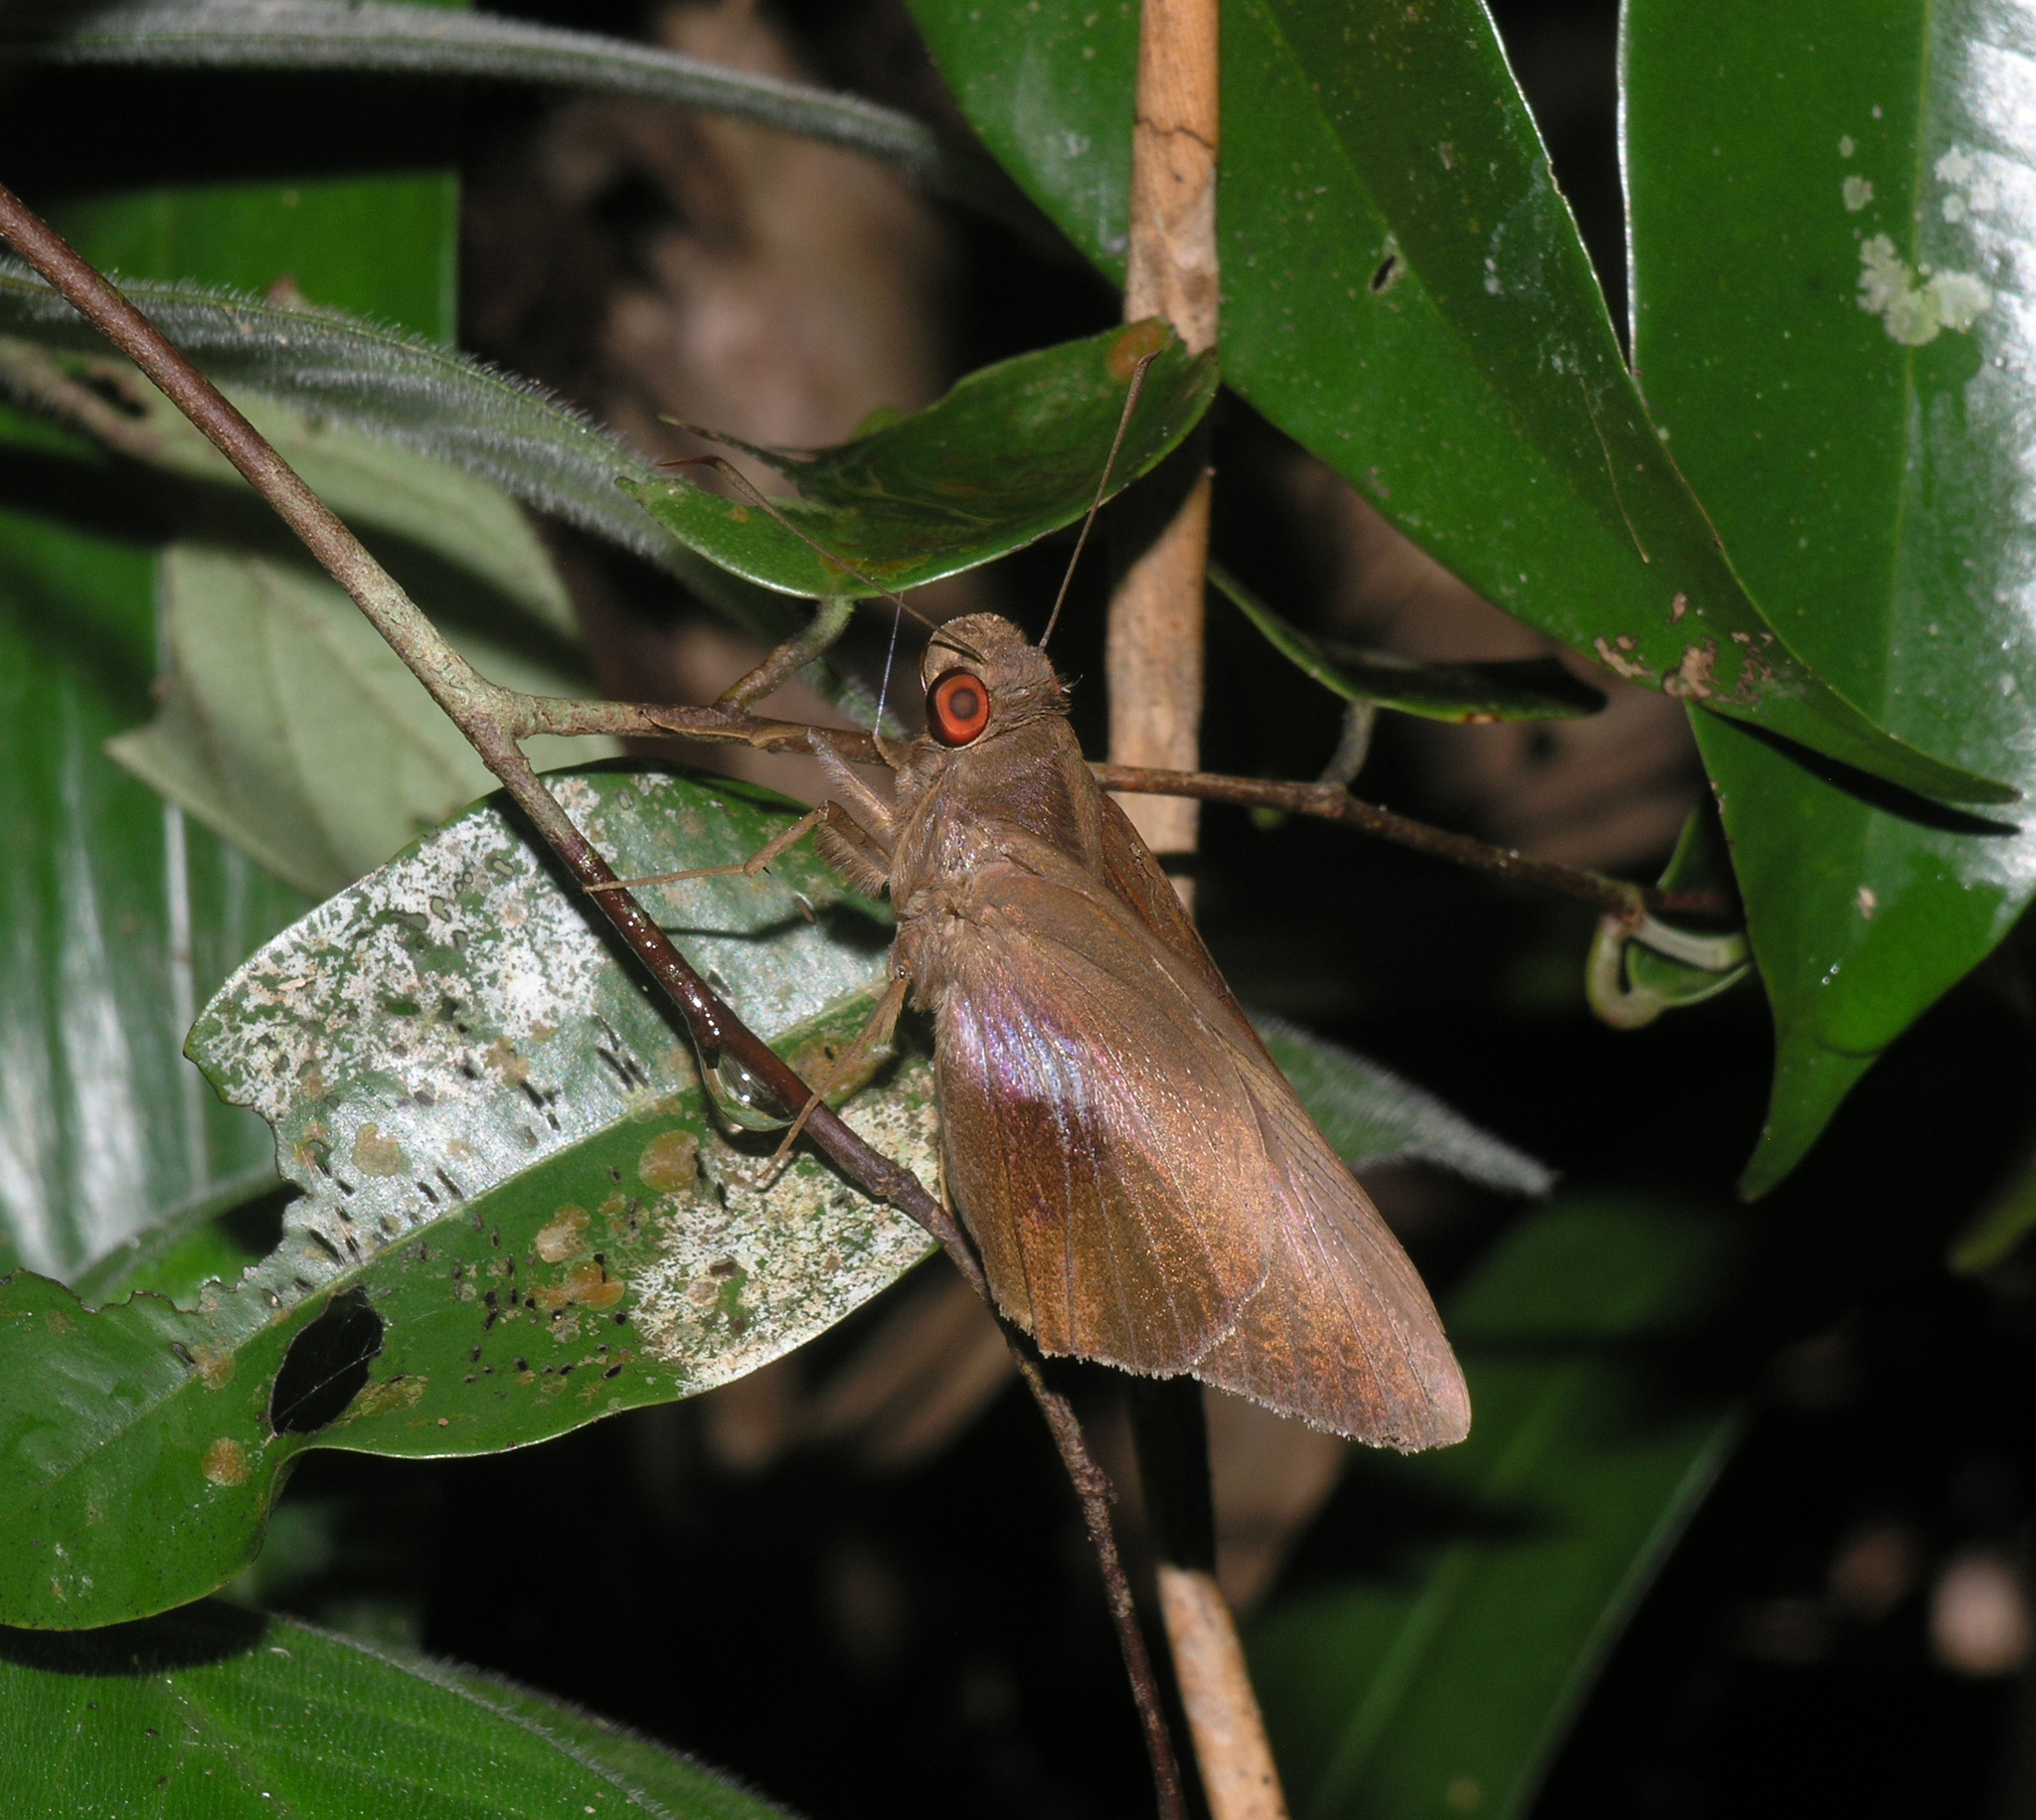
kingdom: Animalia
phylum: Arthropoda
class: Insecta
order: Lepidoptera
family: Hesperiidae
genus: Gangara
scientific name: Gangara lebadea
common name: Banded redeye
